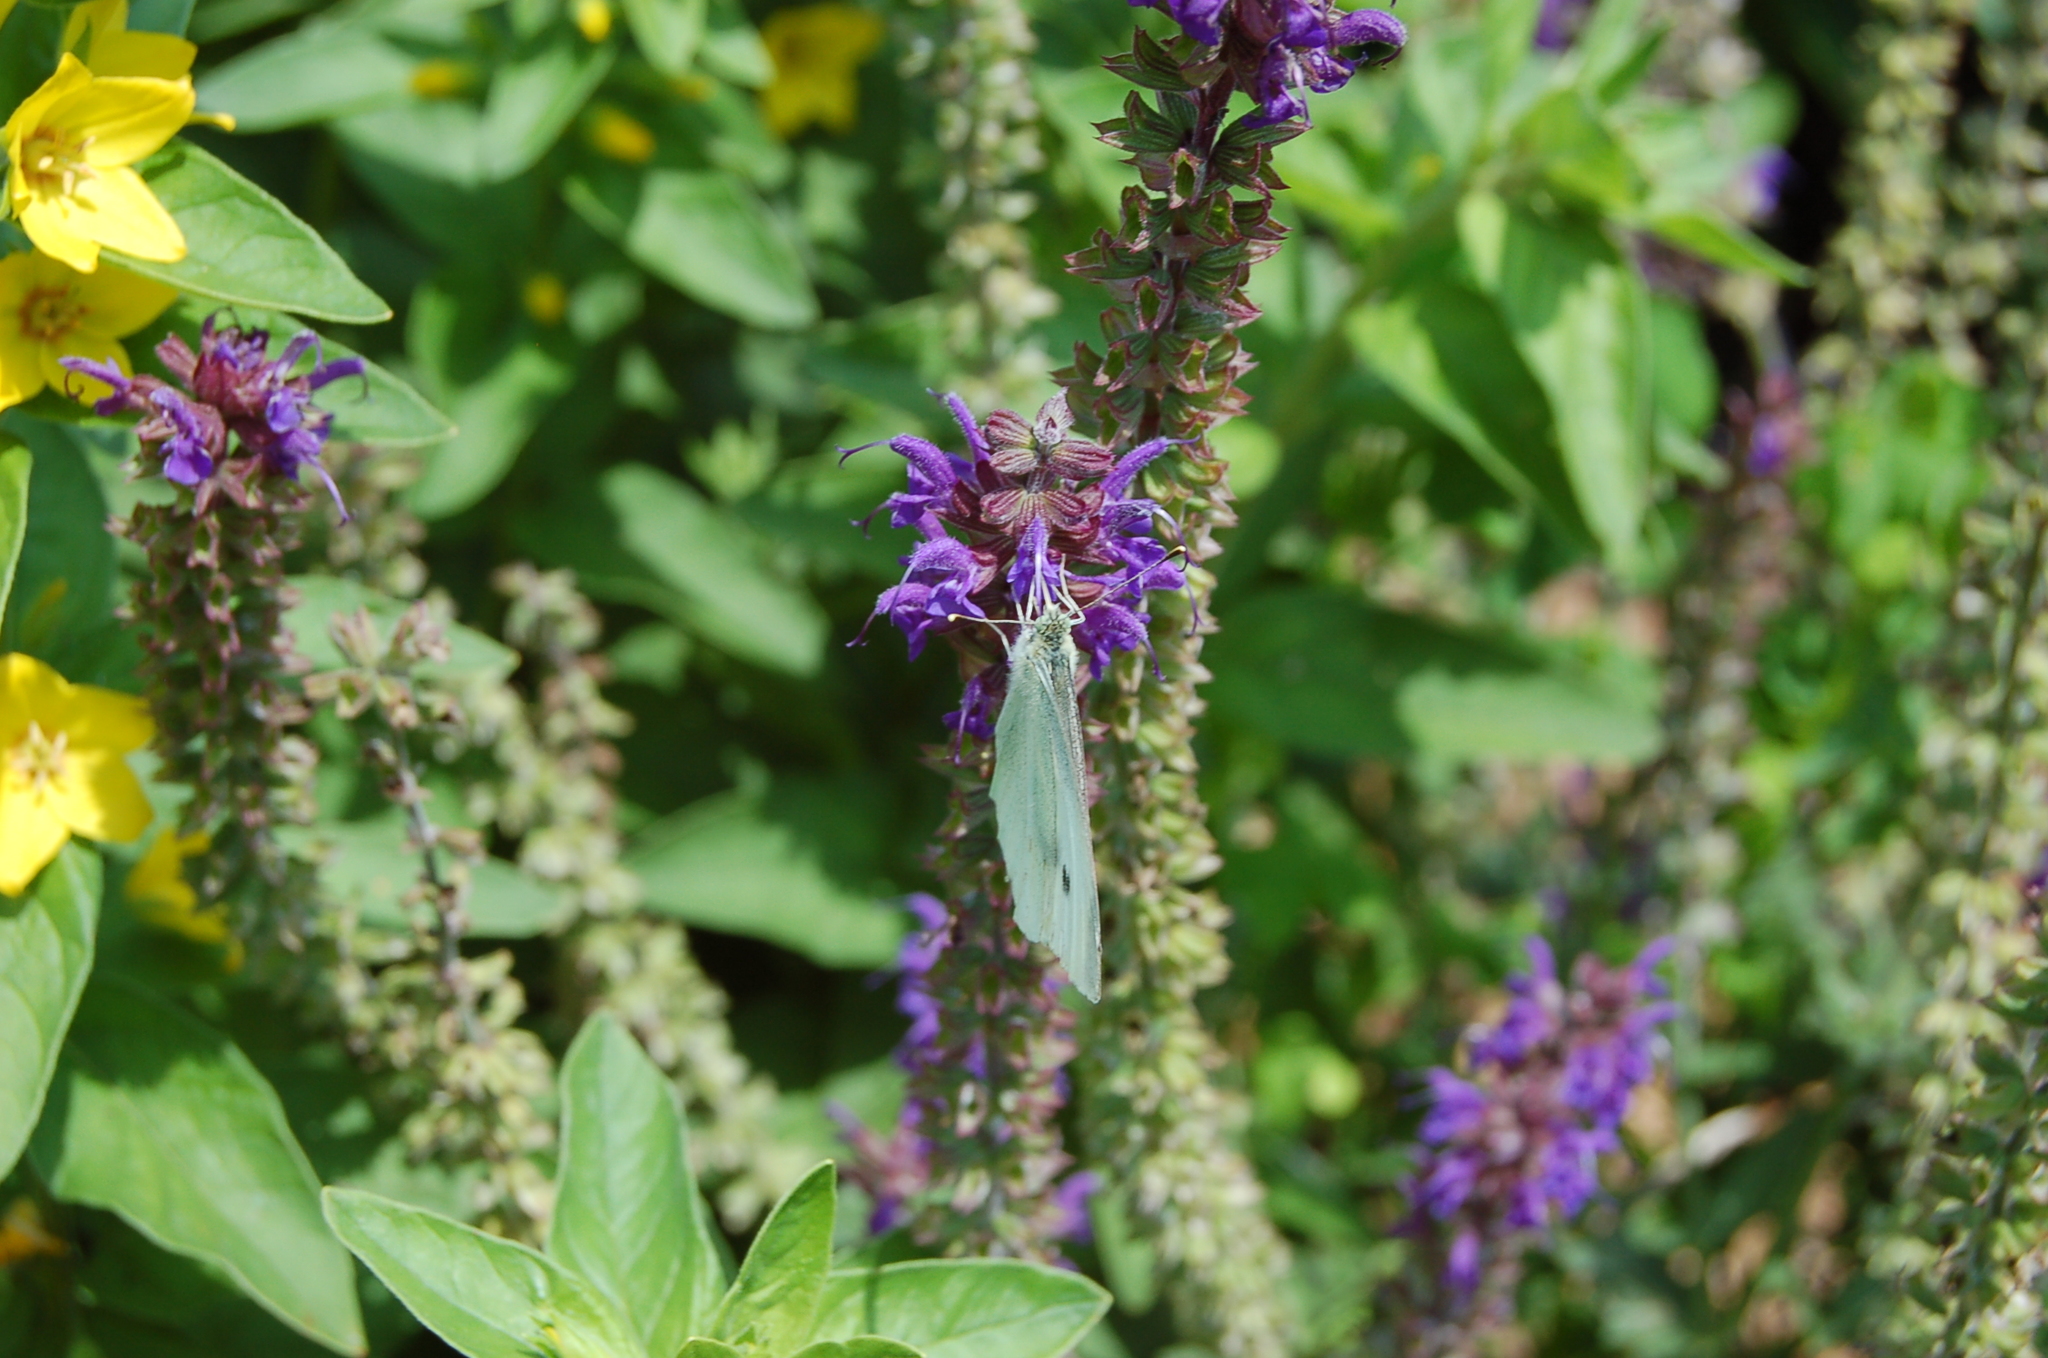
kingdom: Animalia
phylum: Arthropoda
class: Insecta
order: Lepidoptera
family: Pieridae
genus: Pieris
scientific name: Pieris rapae
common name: Small white
